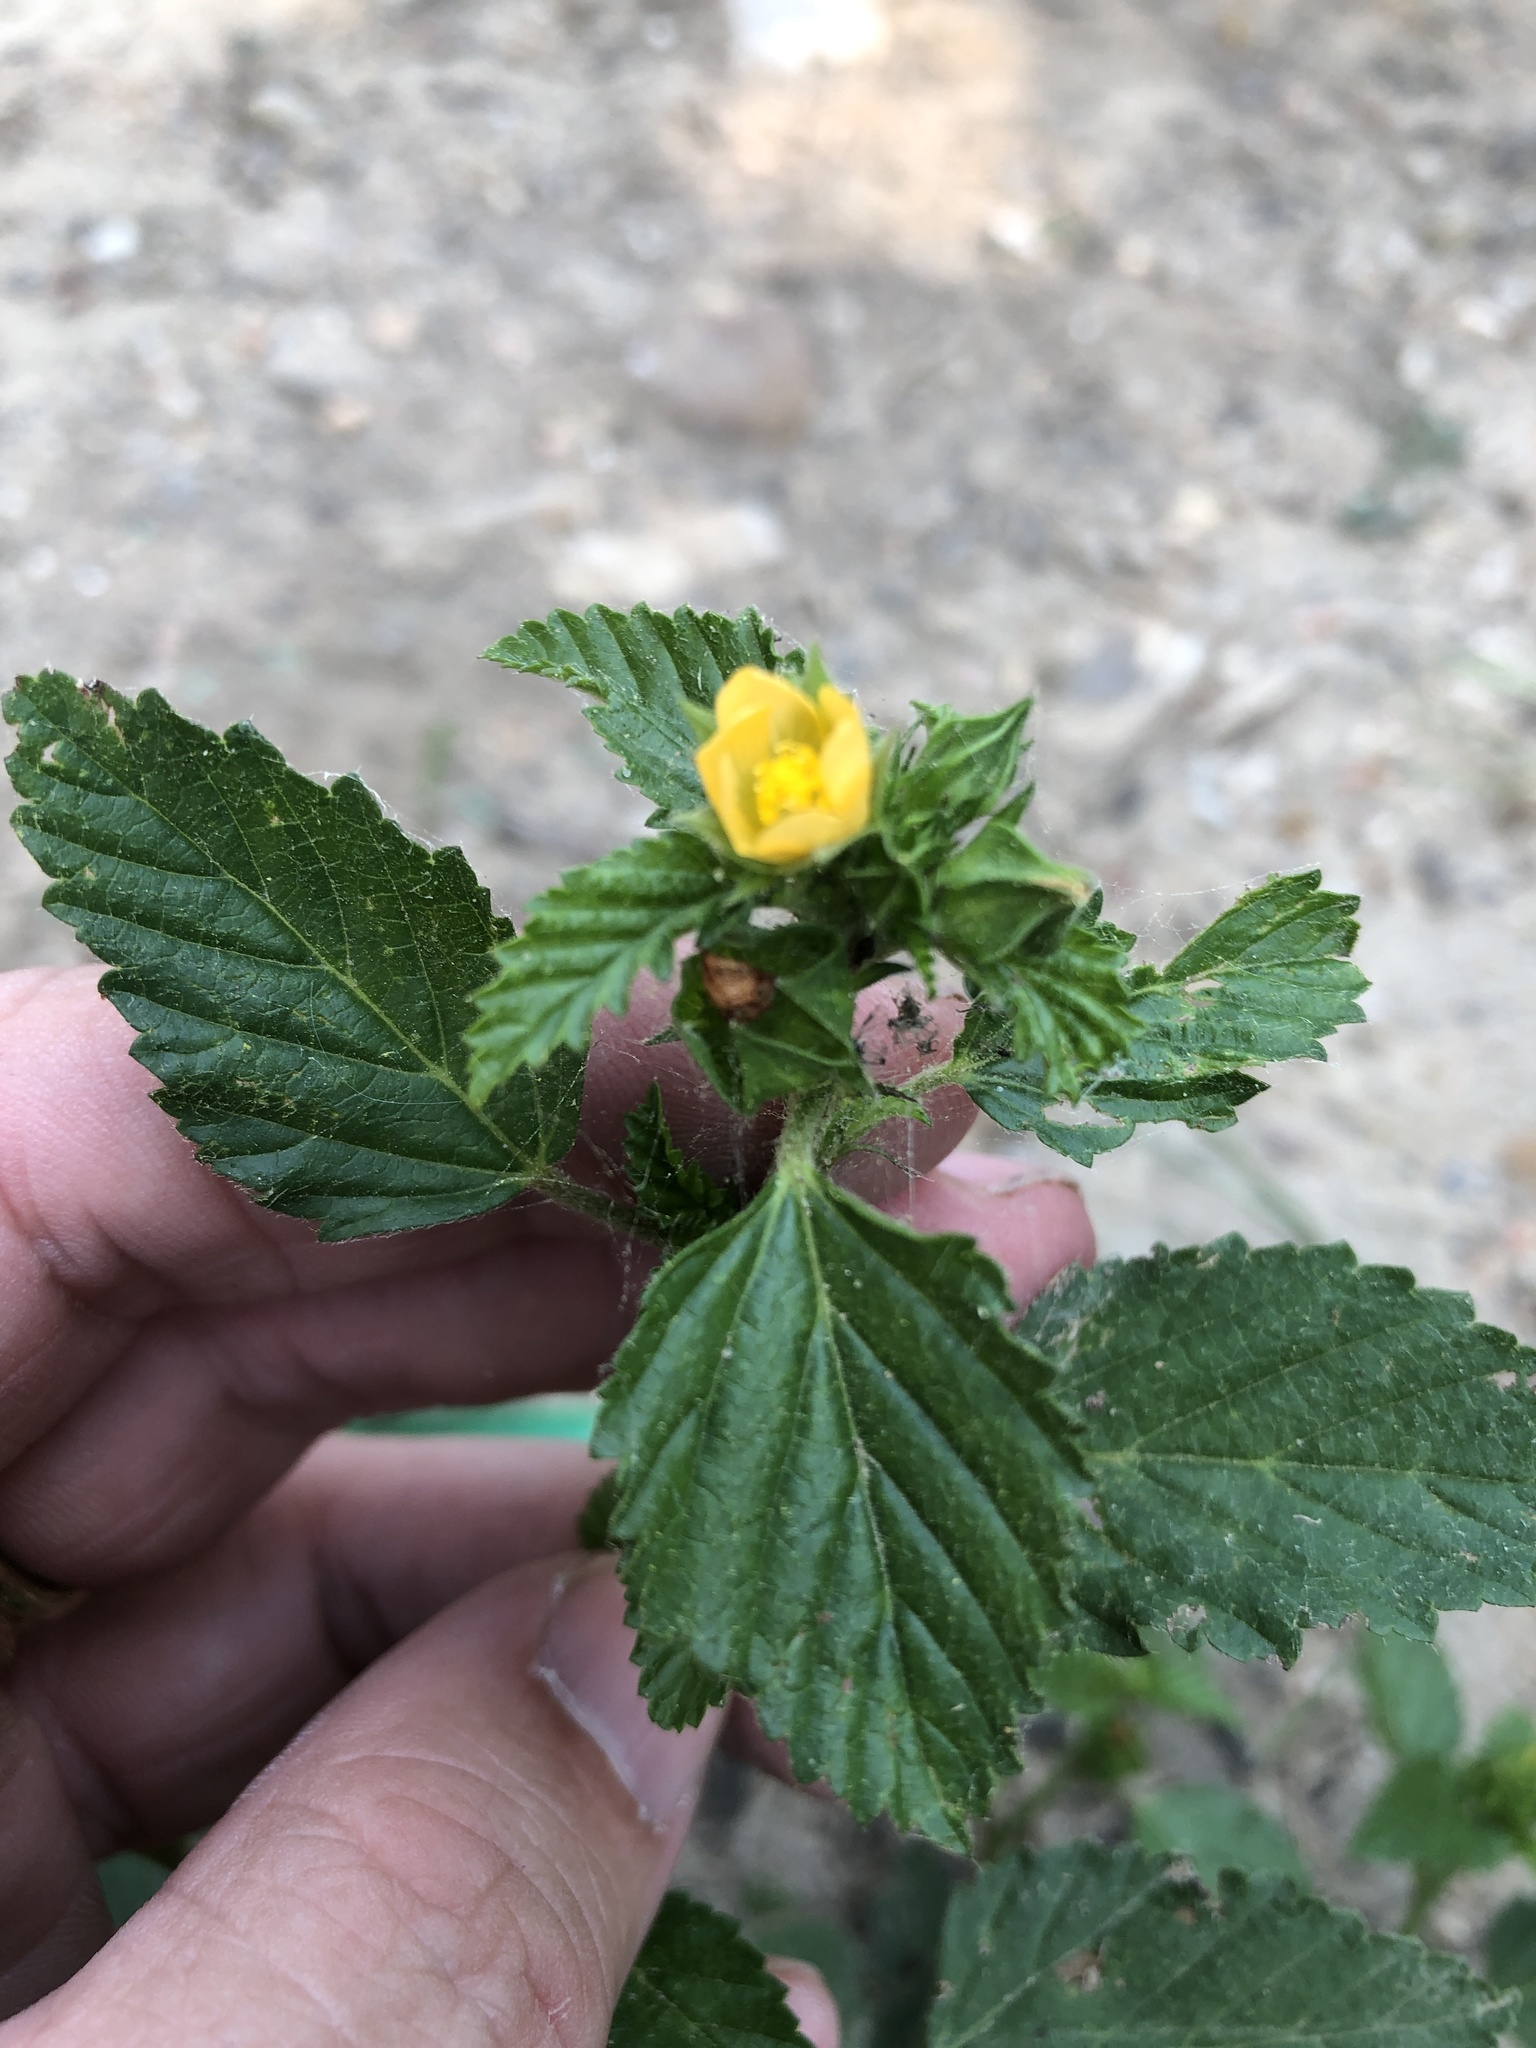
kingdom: Plantae
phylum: Tracheophyta
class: Magnoliopsida
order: Malvales
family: Malvaceae
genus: Malvastrum
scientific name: Malvastrum coromandelianum
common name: Threelobe false mallow
